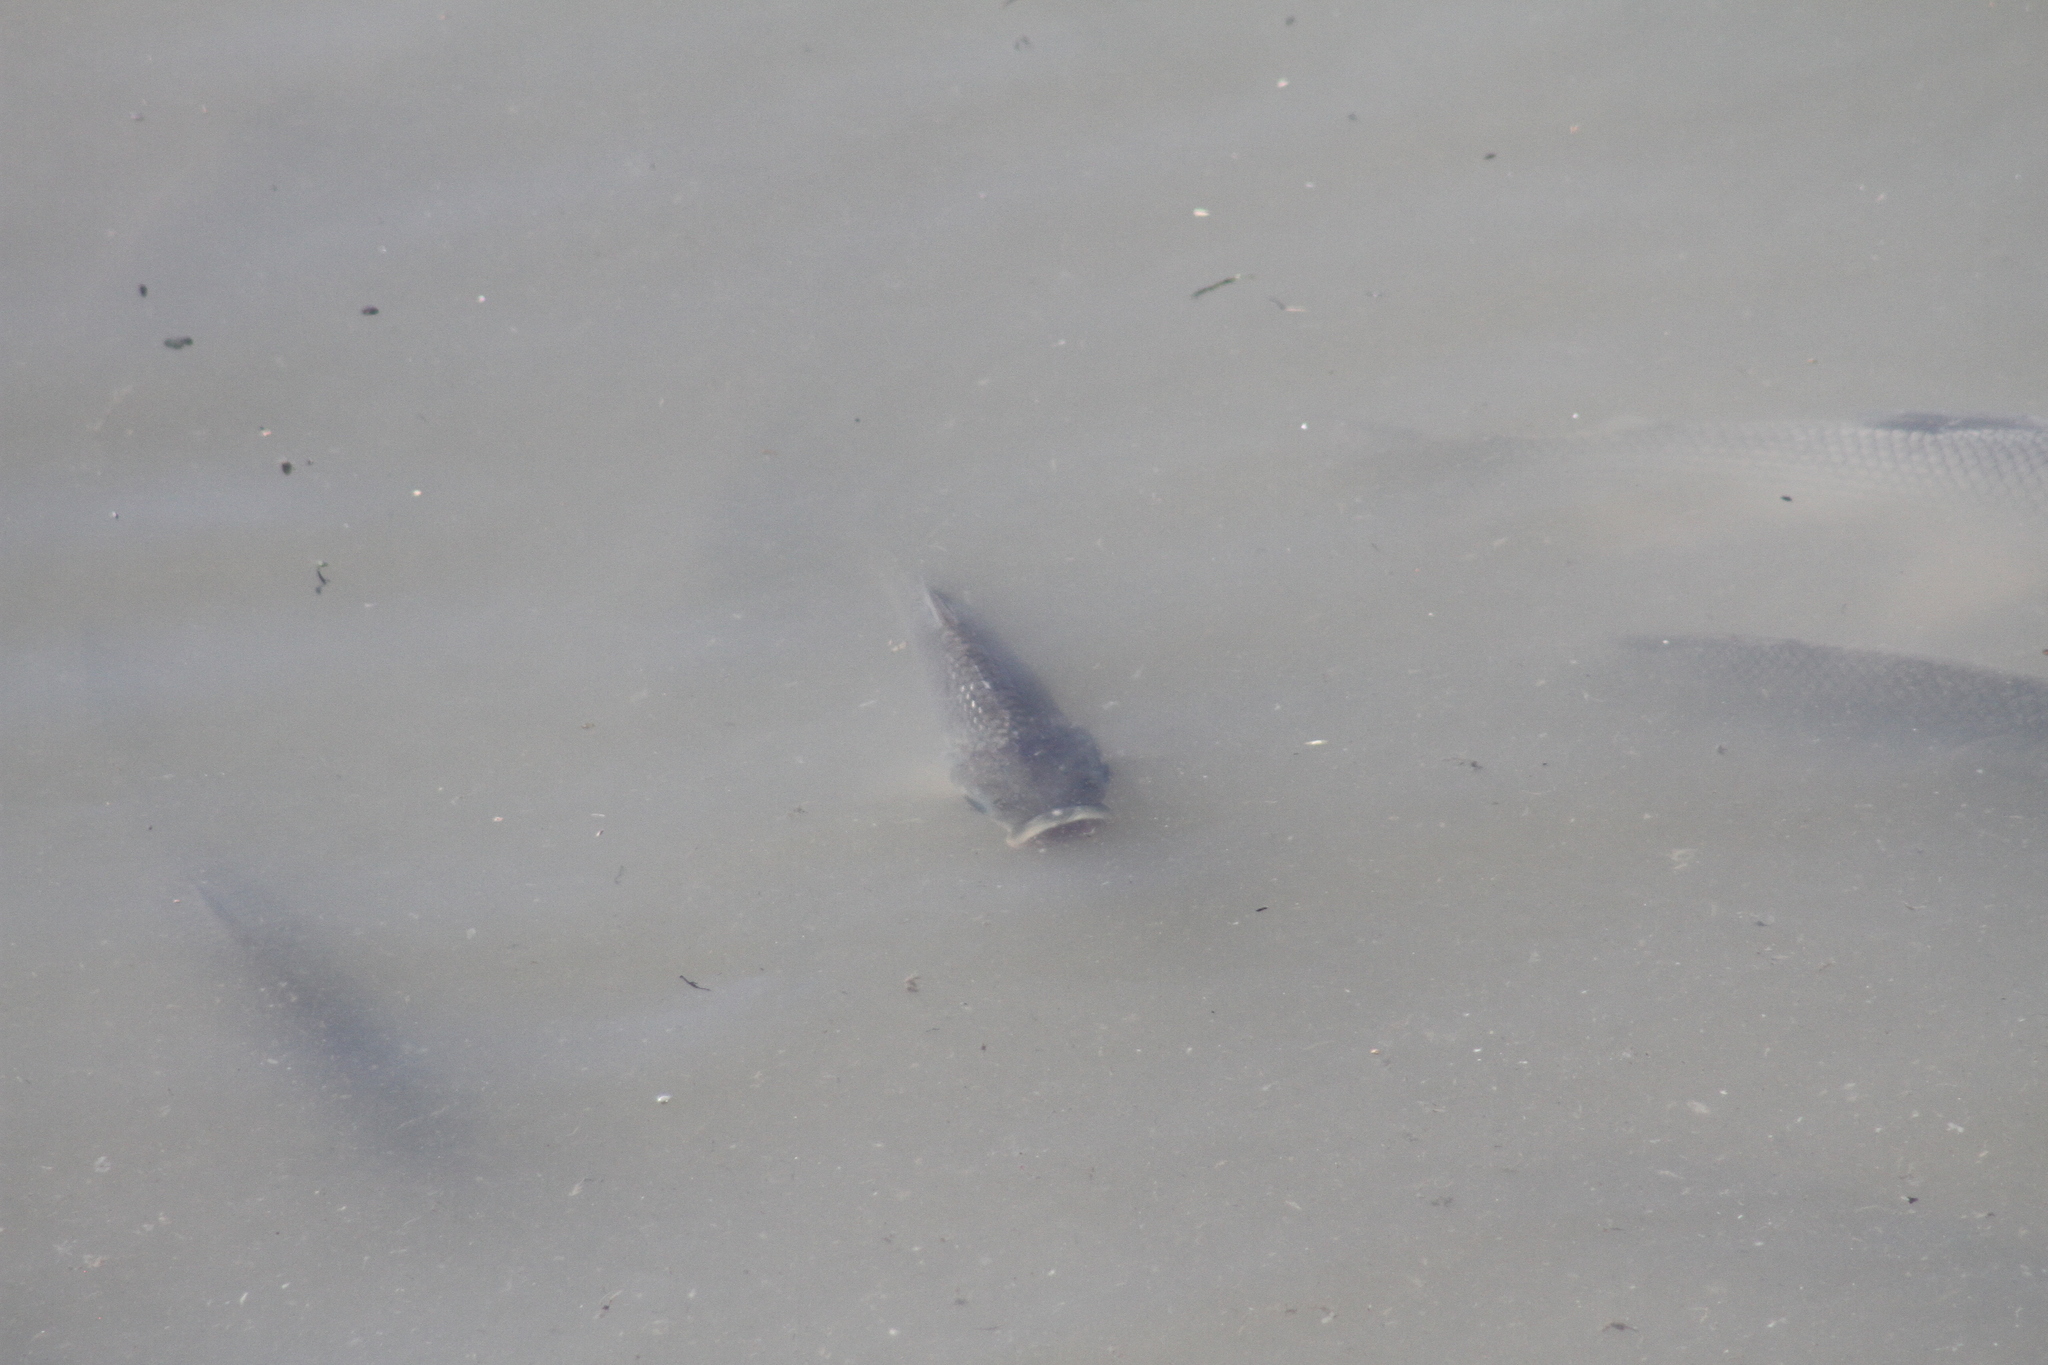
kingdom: Animalia
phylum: Chordata
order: Characiformes
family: Prochilodontidae
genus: Prochilodus
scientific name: Prochilodus lineatus
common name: Curimbata
